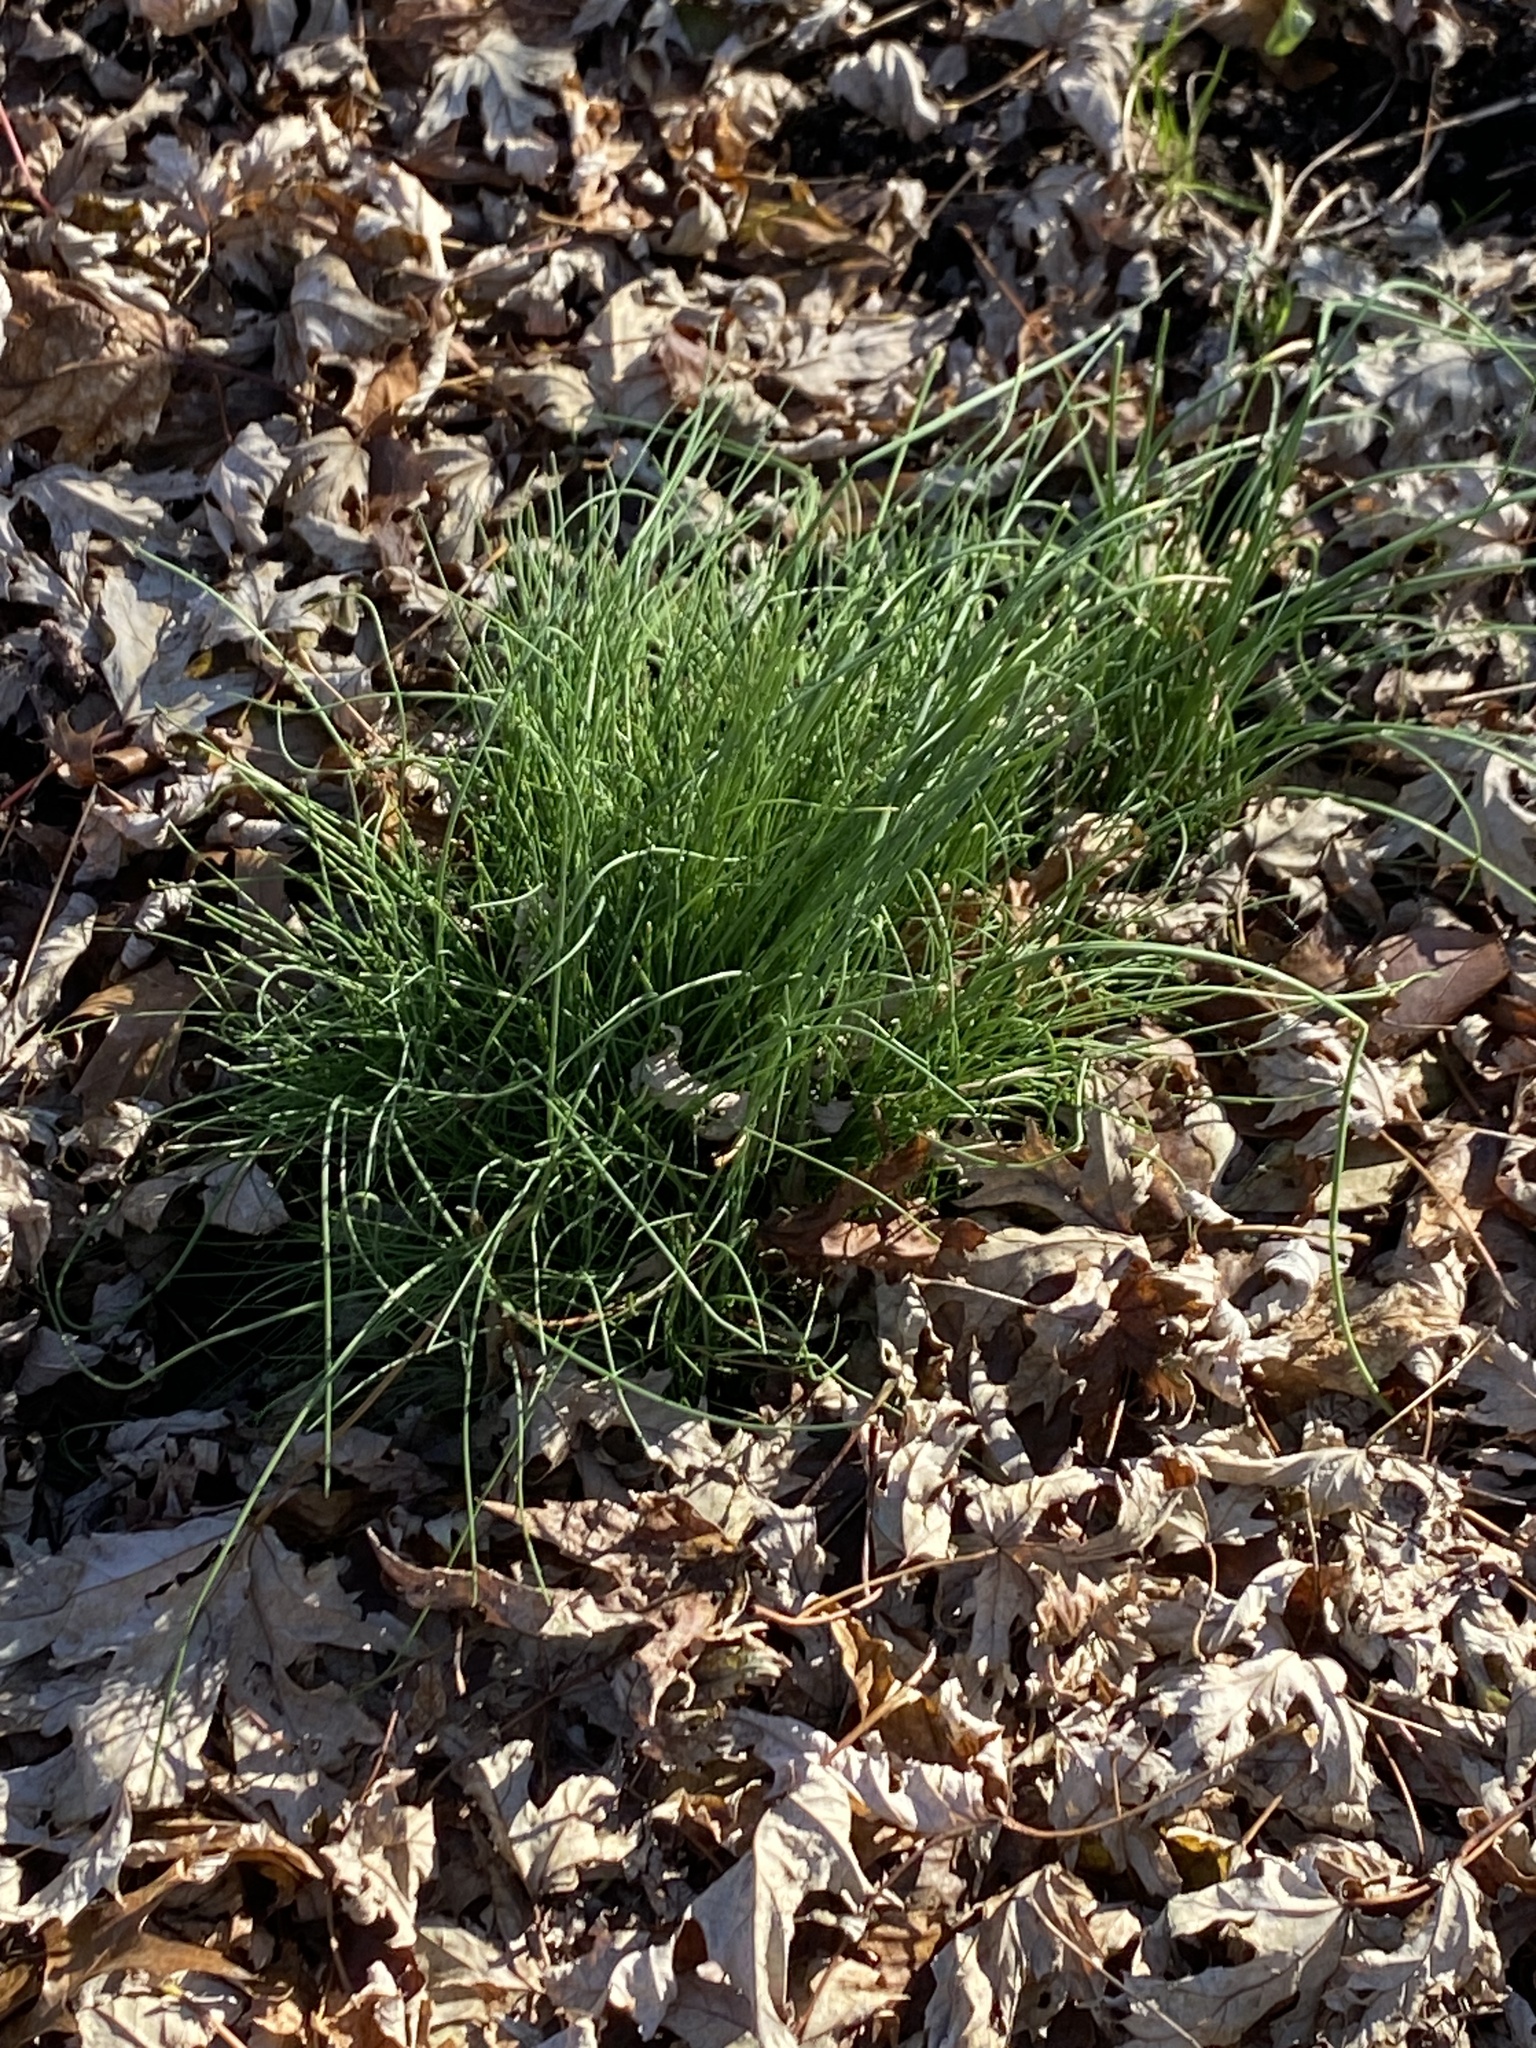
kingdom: Plantae
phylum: Tracheophyta
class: Liliopsida
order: Asparagales
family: Amaryllidaceae
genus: Allium
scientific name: Allium vineale
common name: Crow garlic
